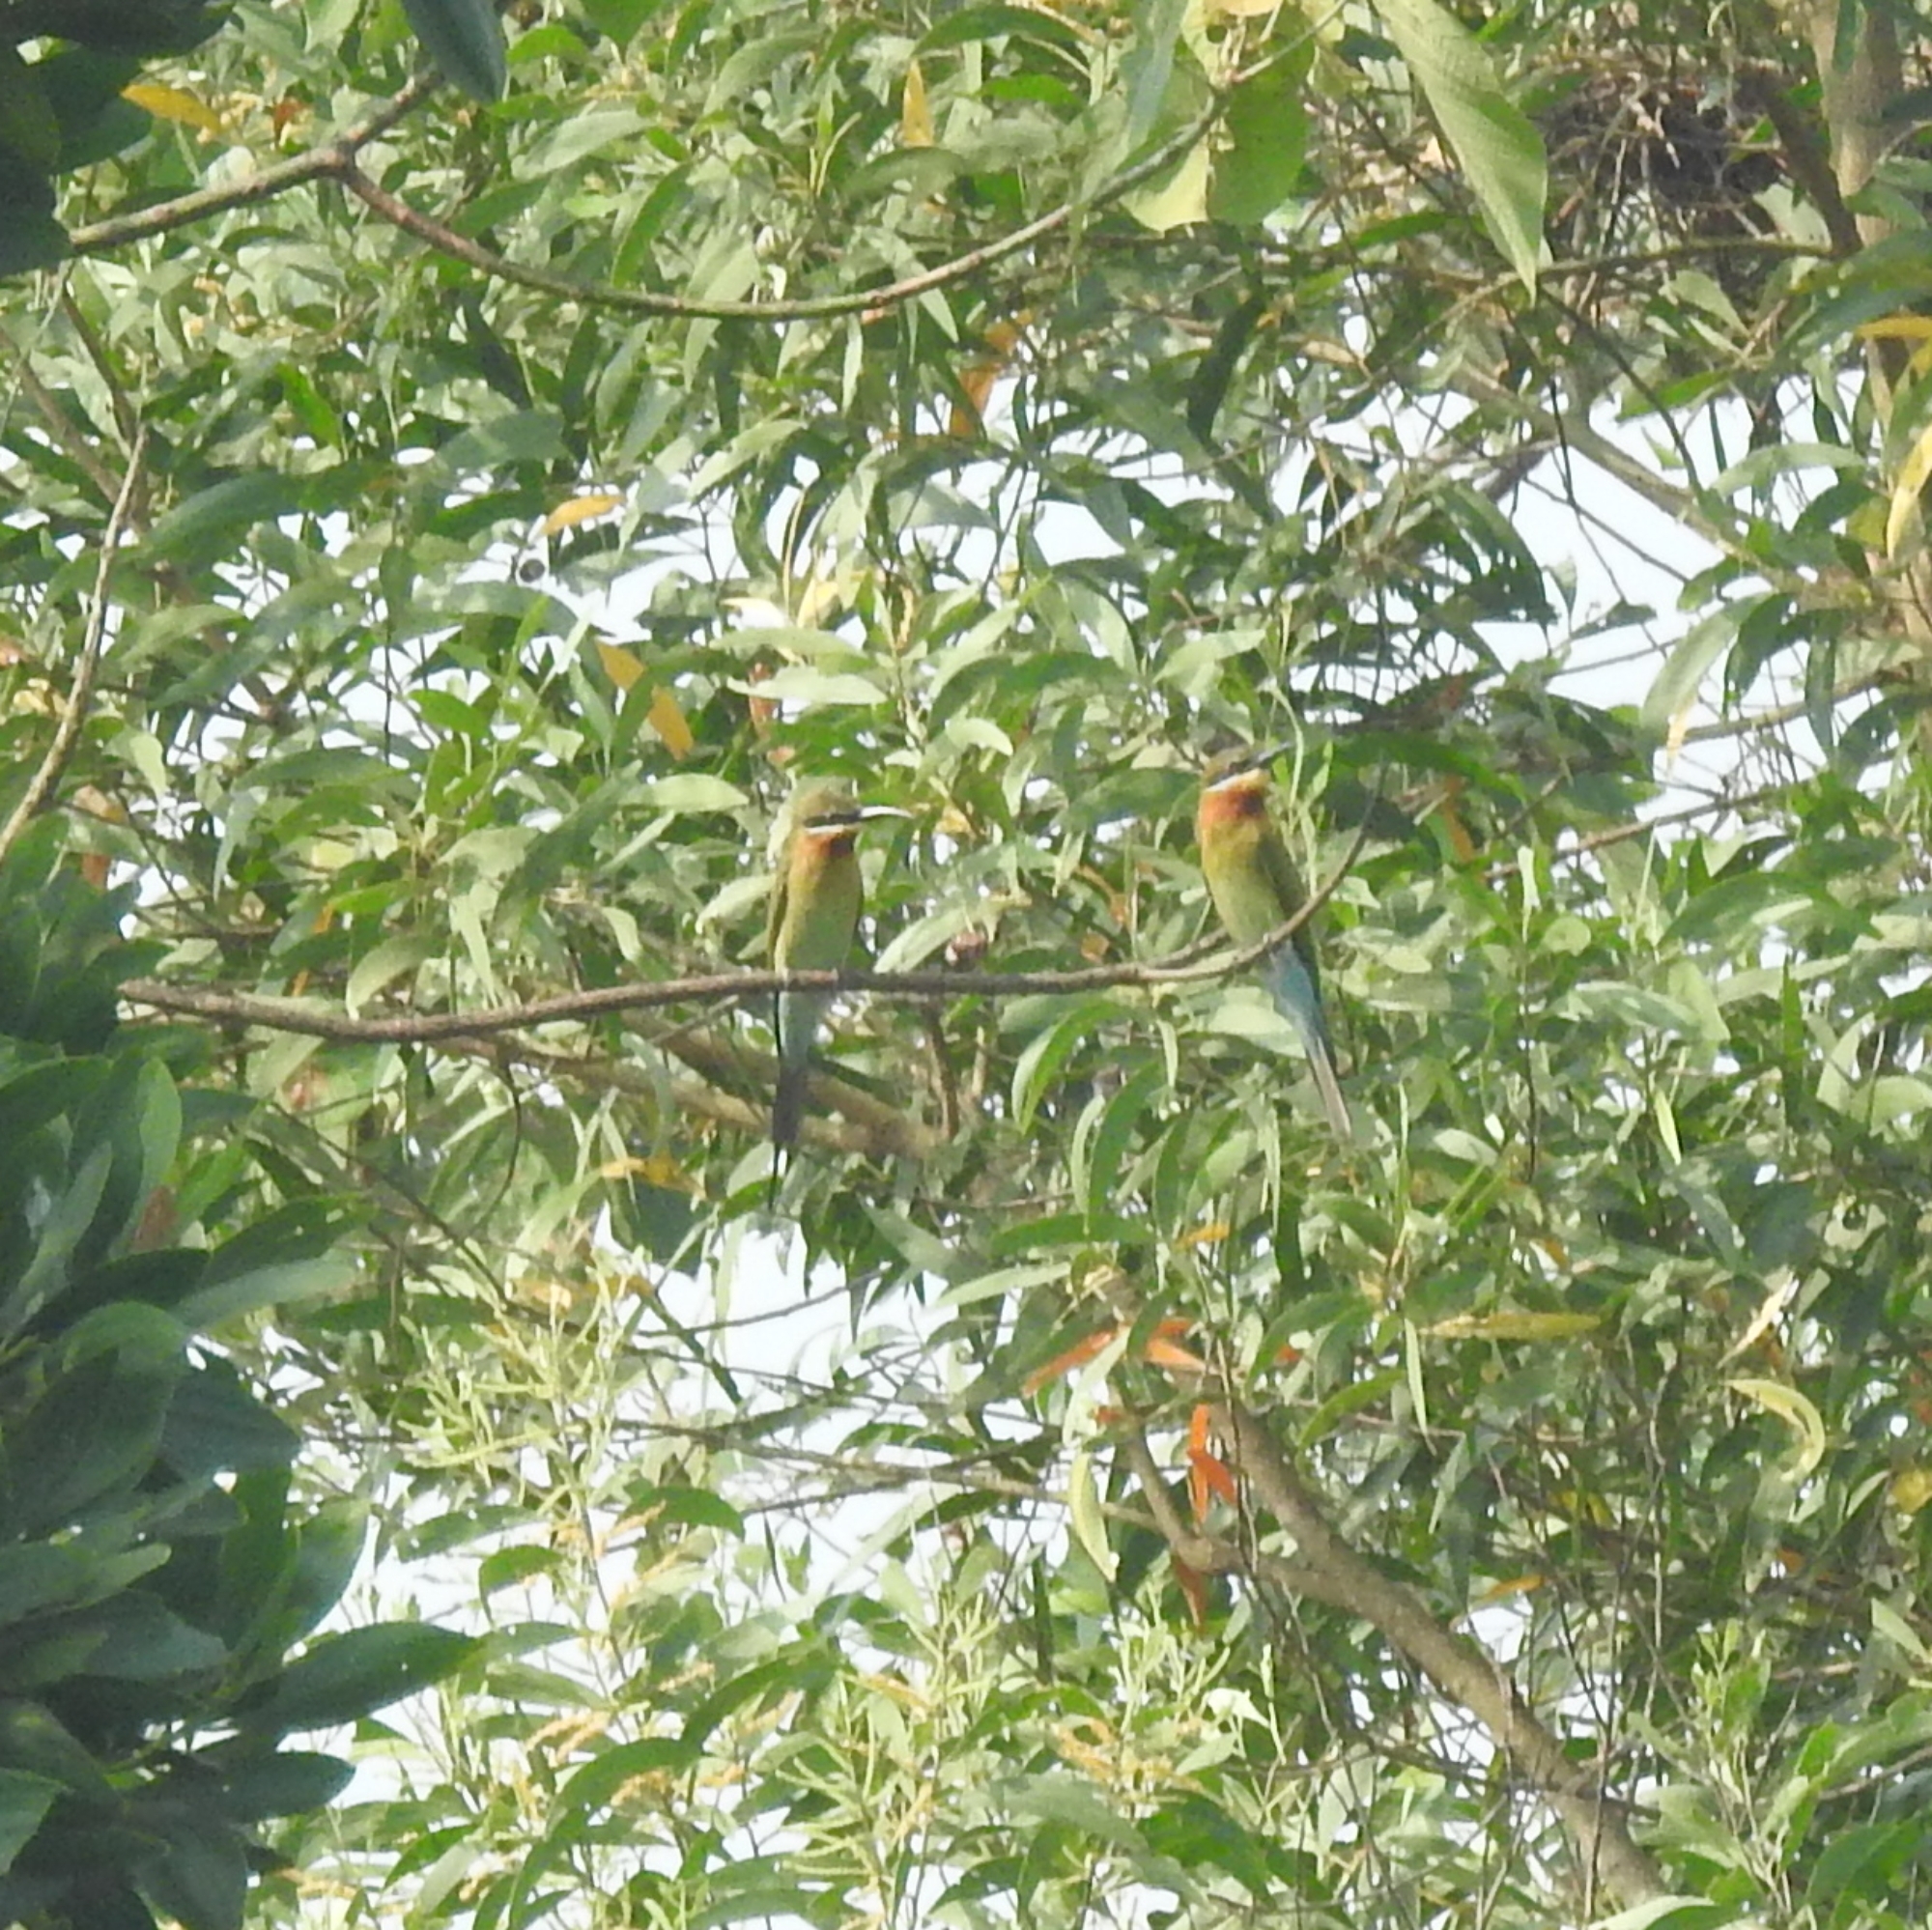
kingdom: Animalia
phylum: Chordata
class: Aves
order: Coraciiformes
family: Meropidae
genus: Merops
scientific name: Merops philippinus
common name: Blue-tailed bee-eater
